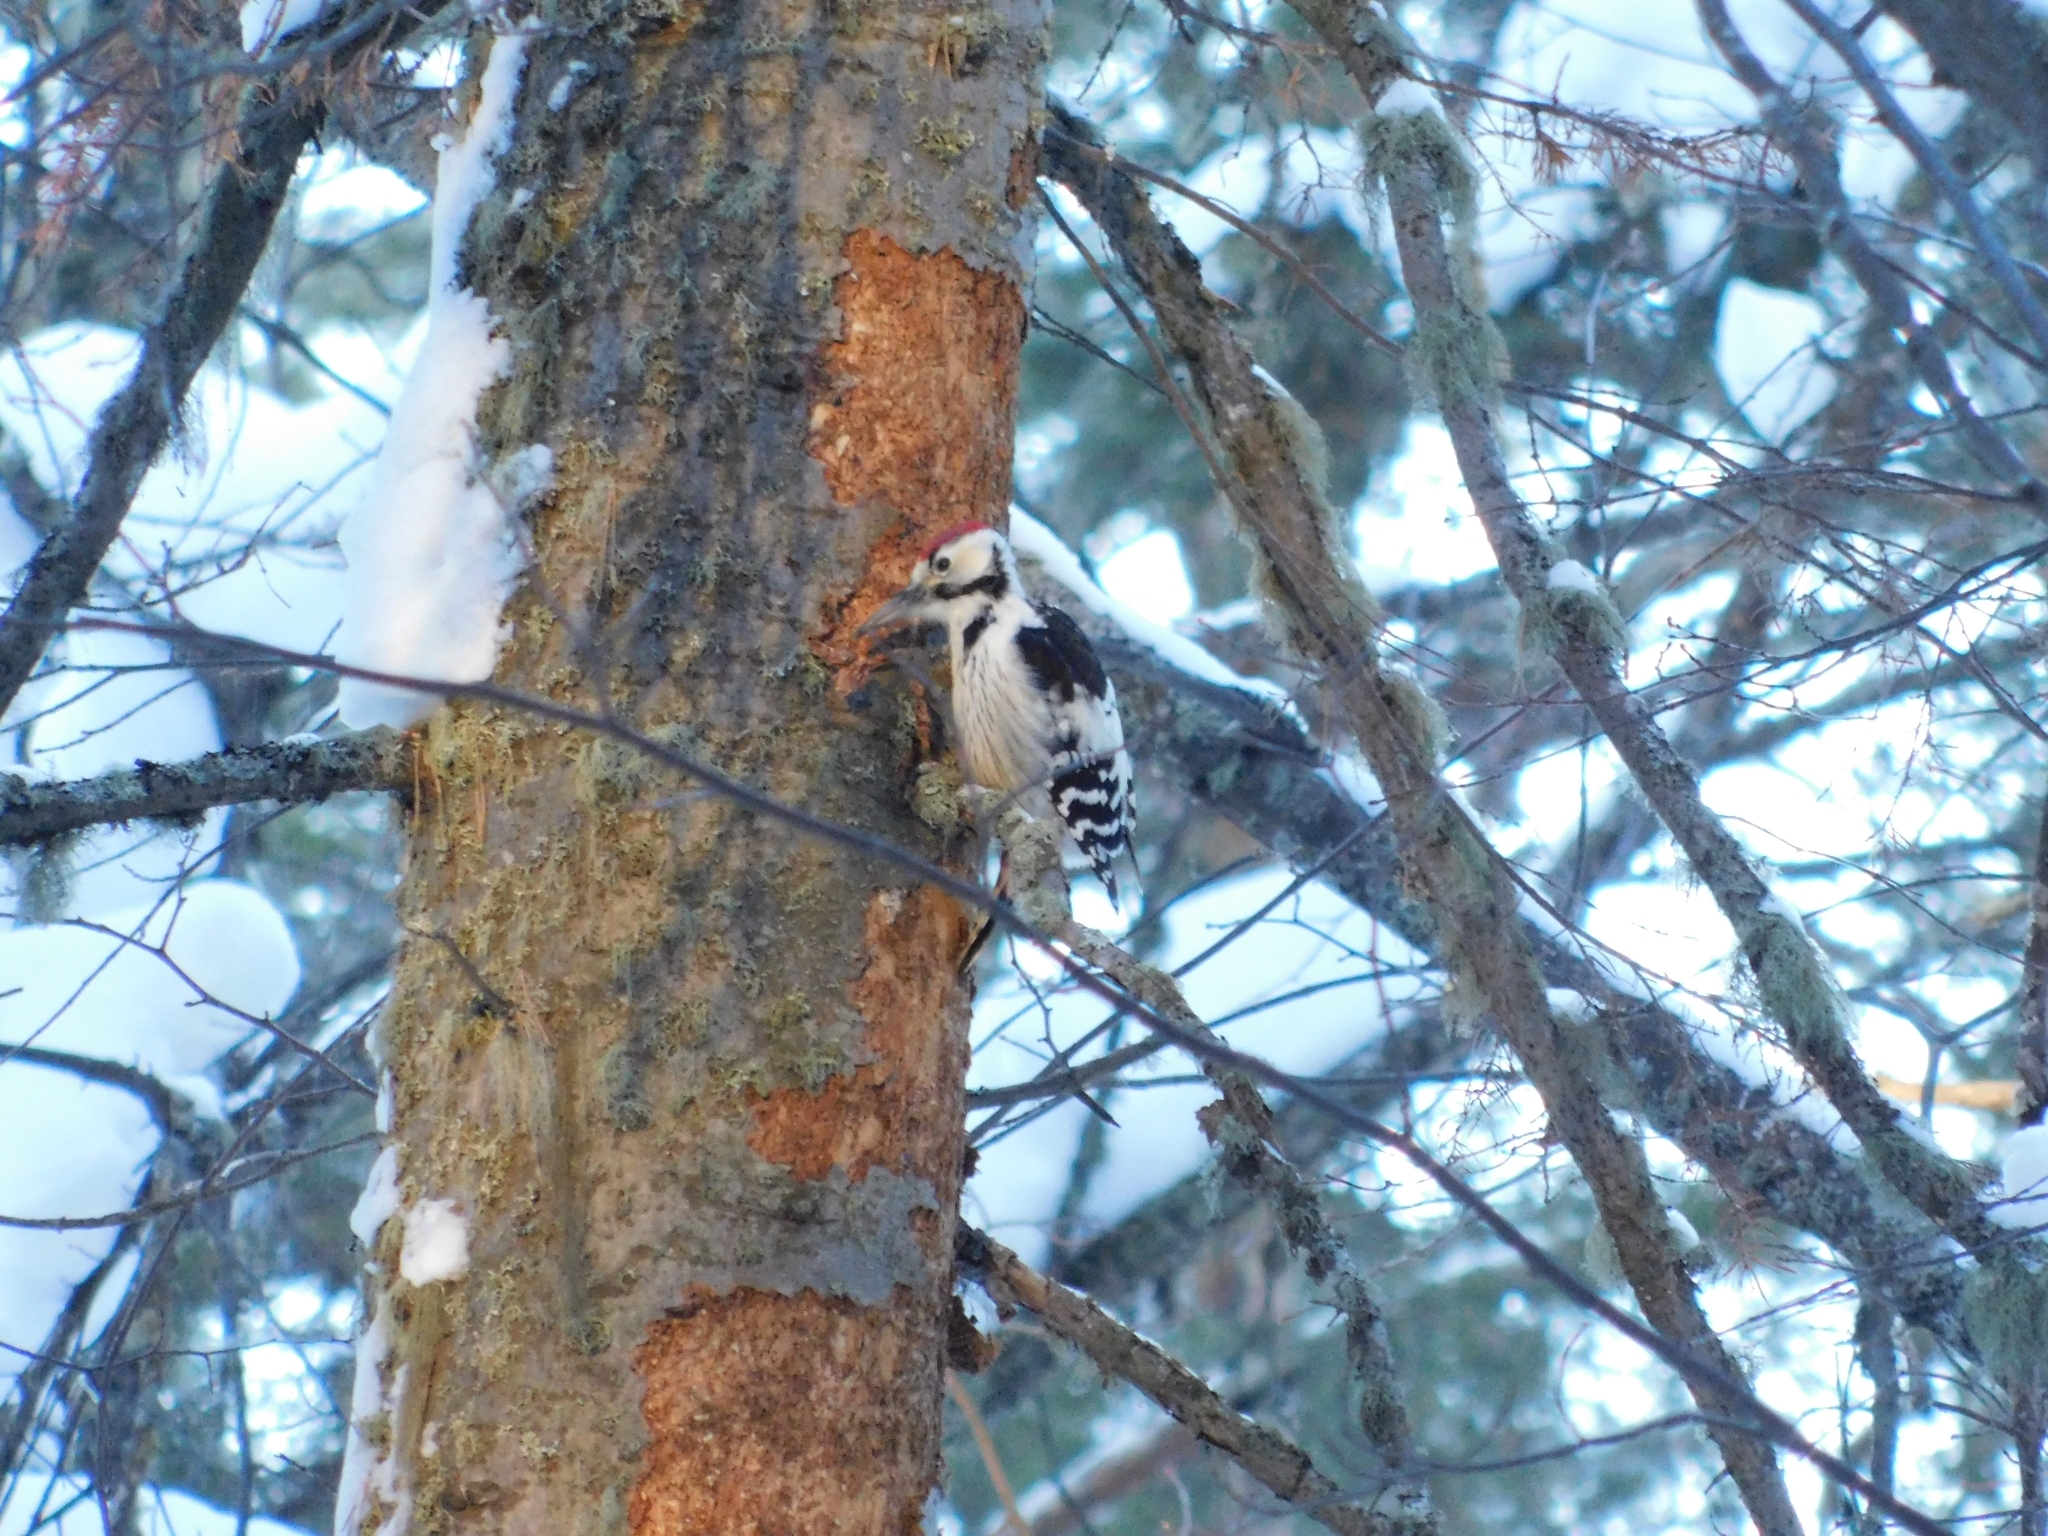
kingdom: Animalia
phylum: Chordata
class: Aves
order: Piciformes
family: Picidae
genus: Dendrocopos
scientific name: Dendrocopos leucotos
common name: White-backed woodpecker
